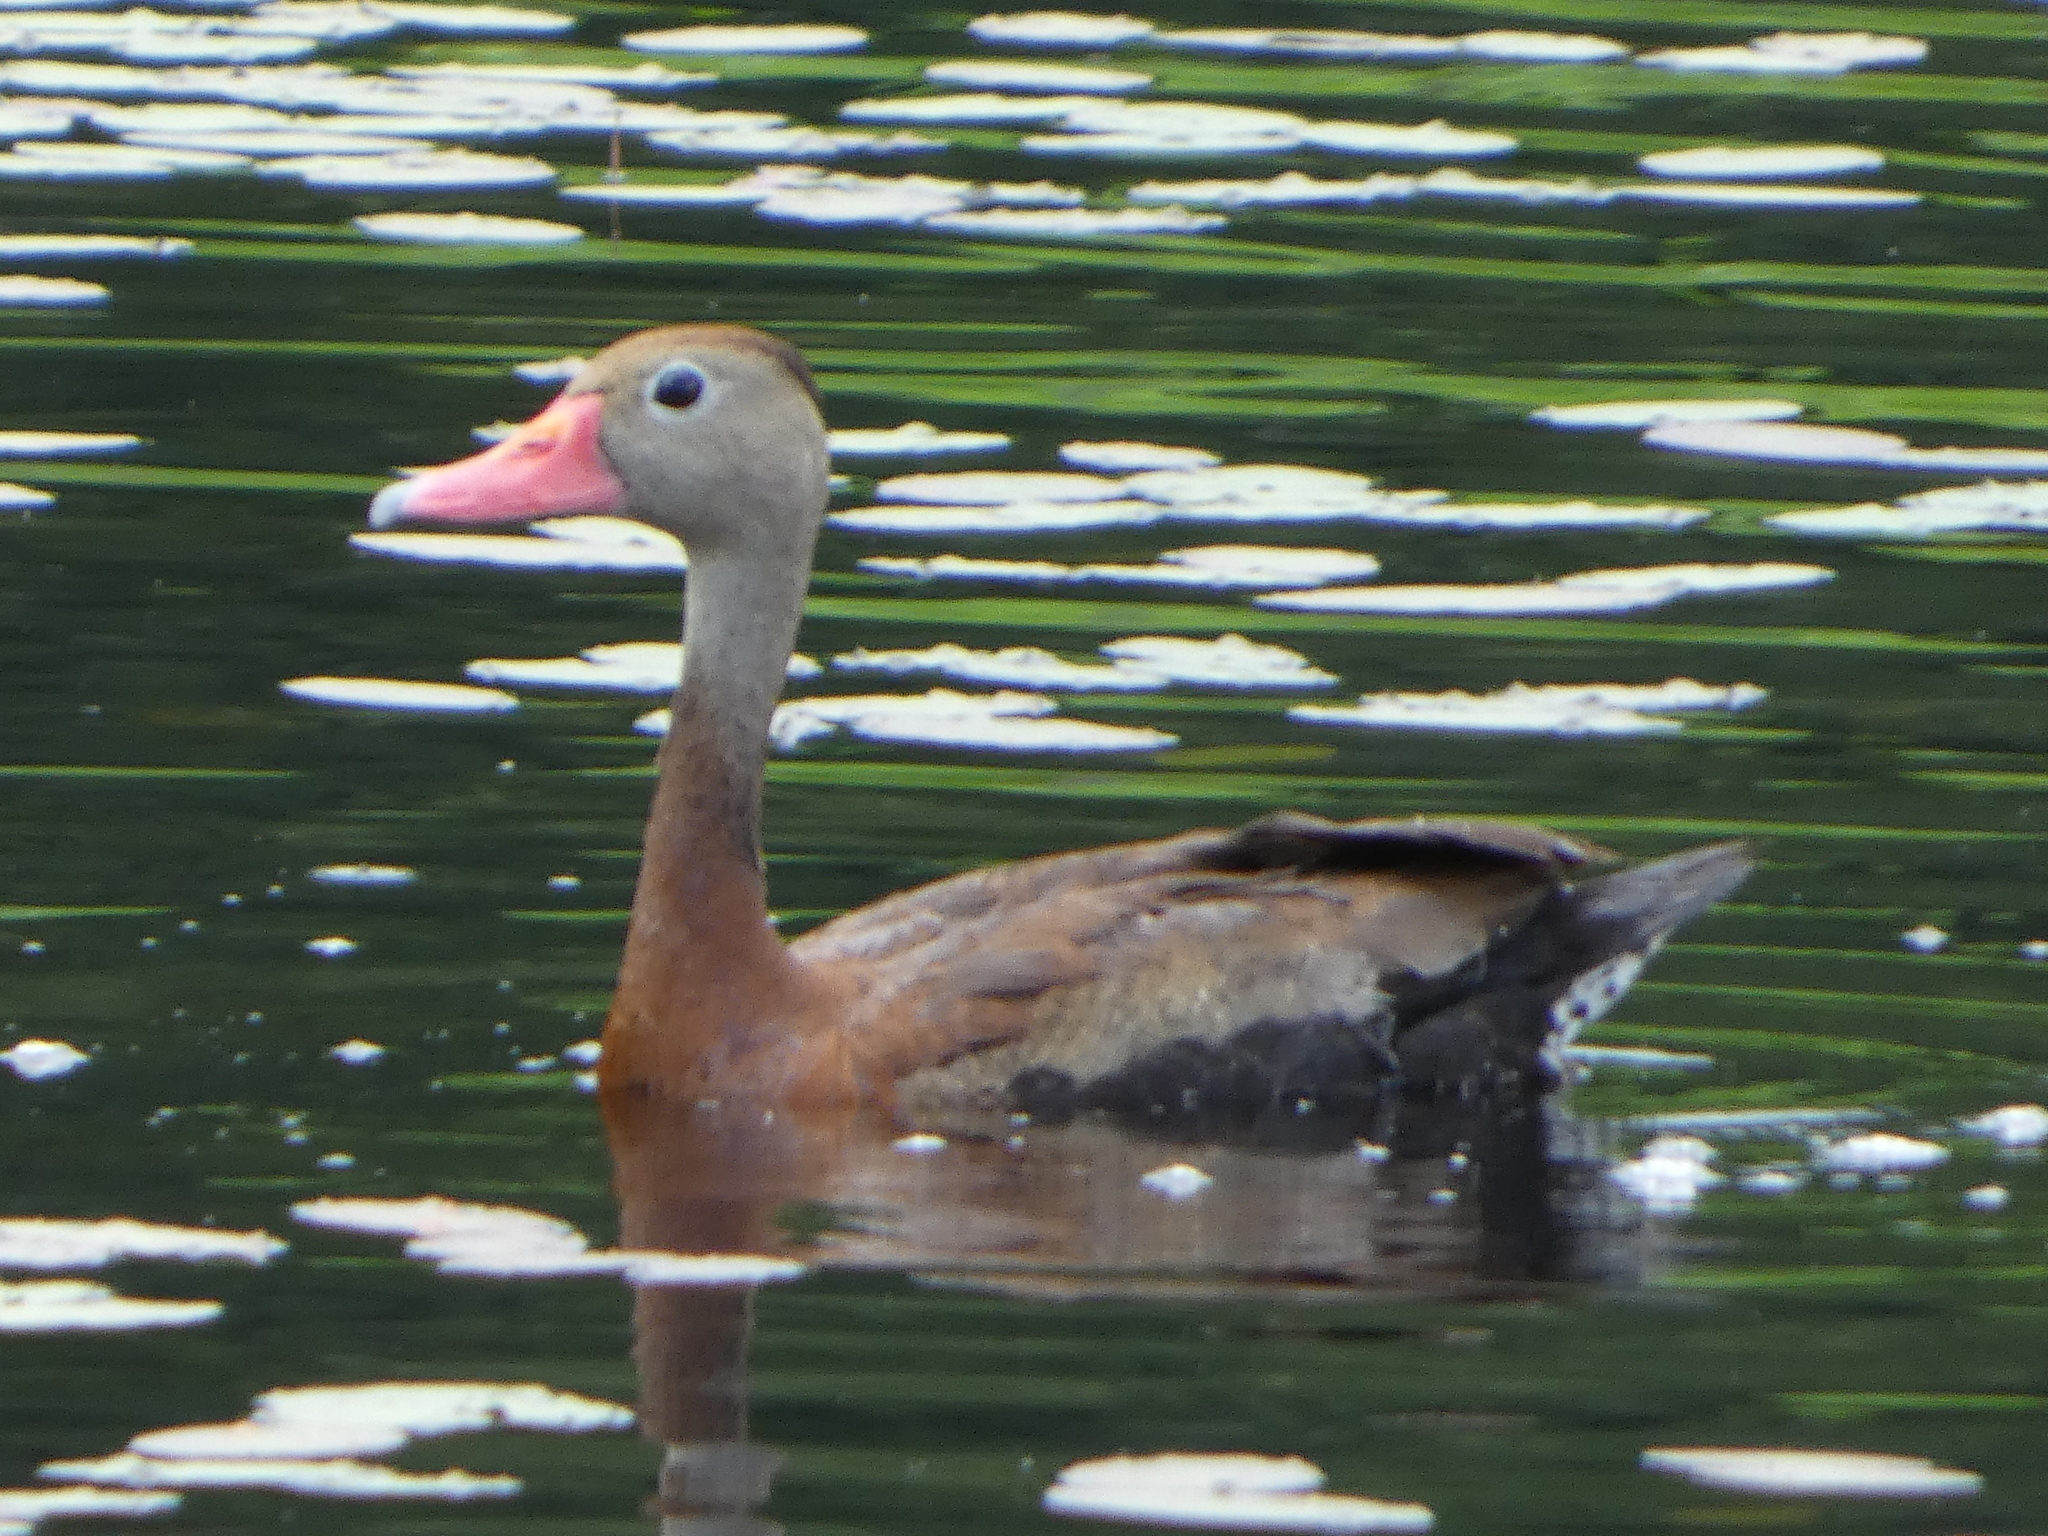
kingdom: Animalia
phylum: Chordata
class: Aves
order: Anseriformes
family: Anatidae
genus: Dendrocygna
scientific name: Dendrocygna autumnalis
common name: Black-bellied whistling duck
